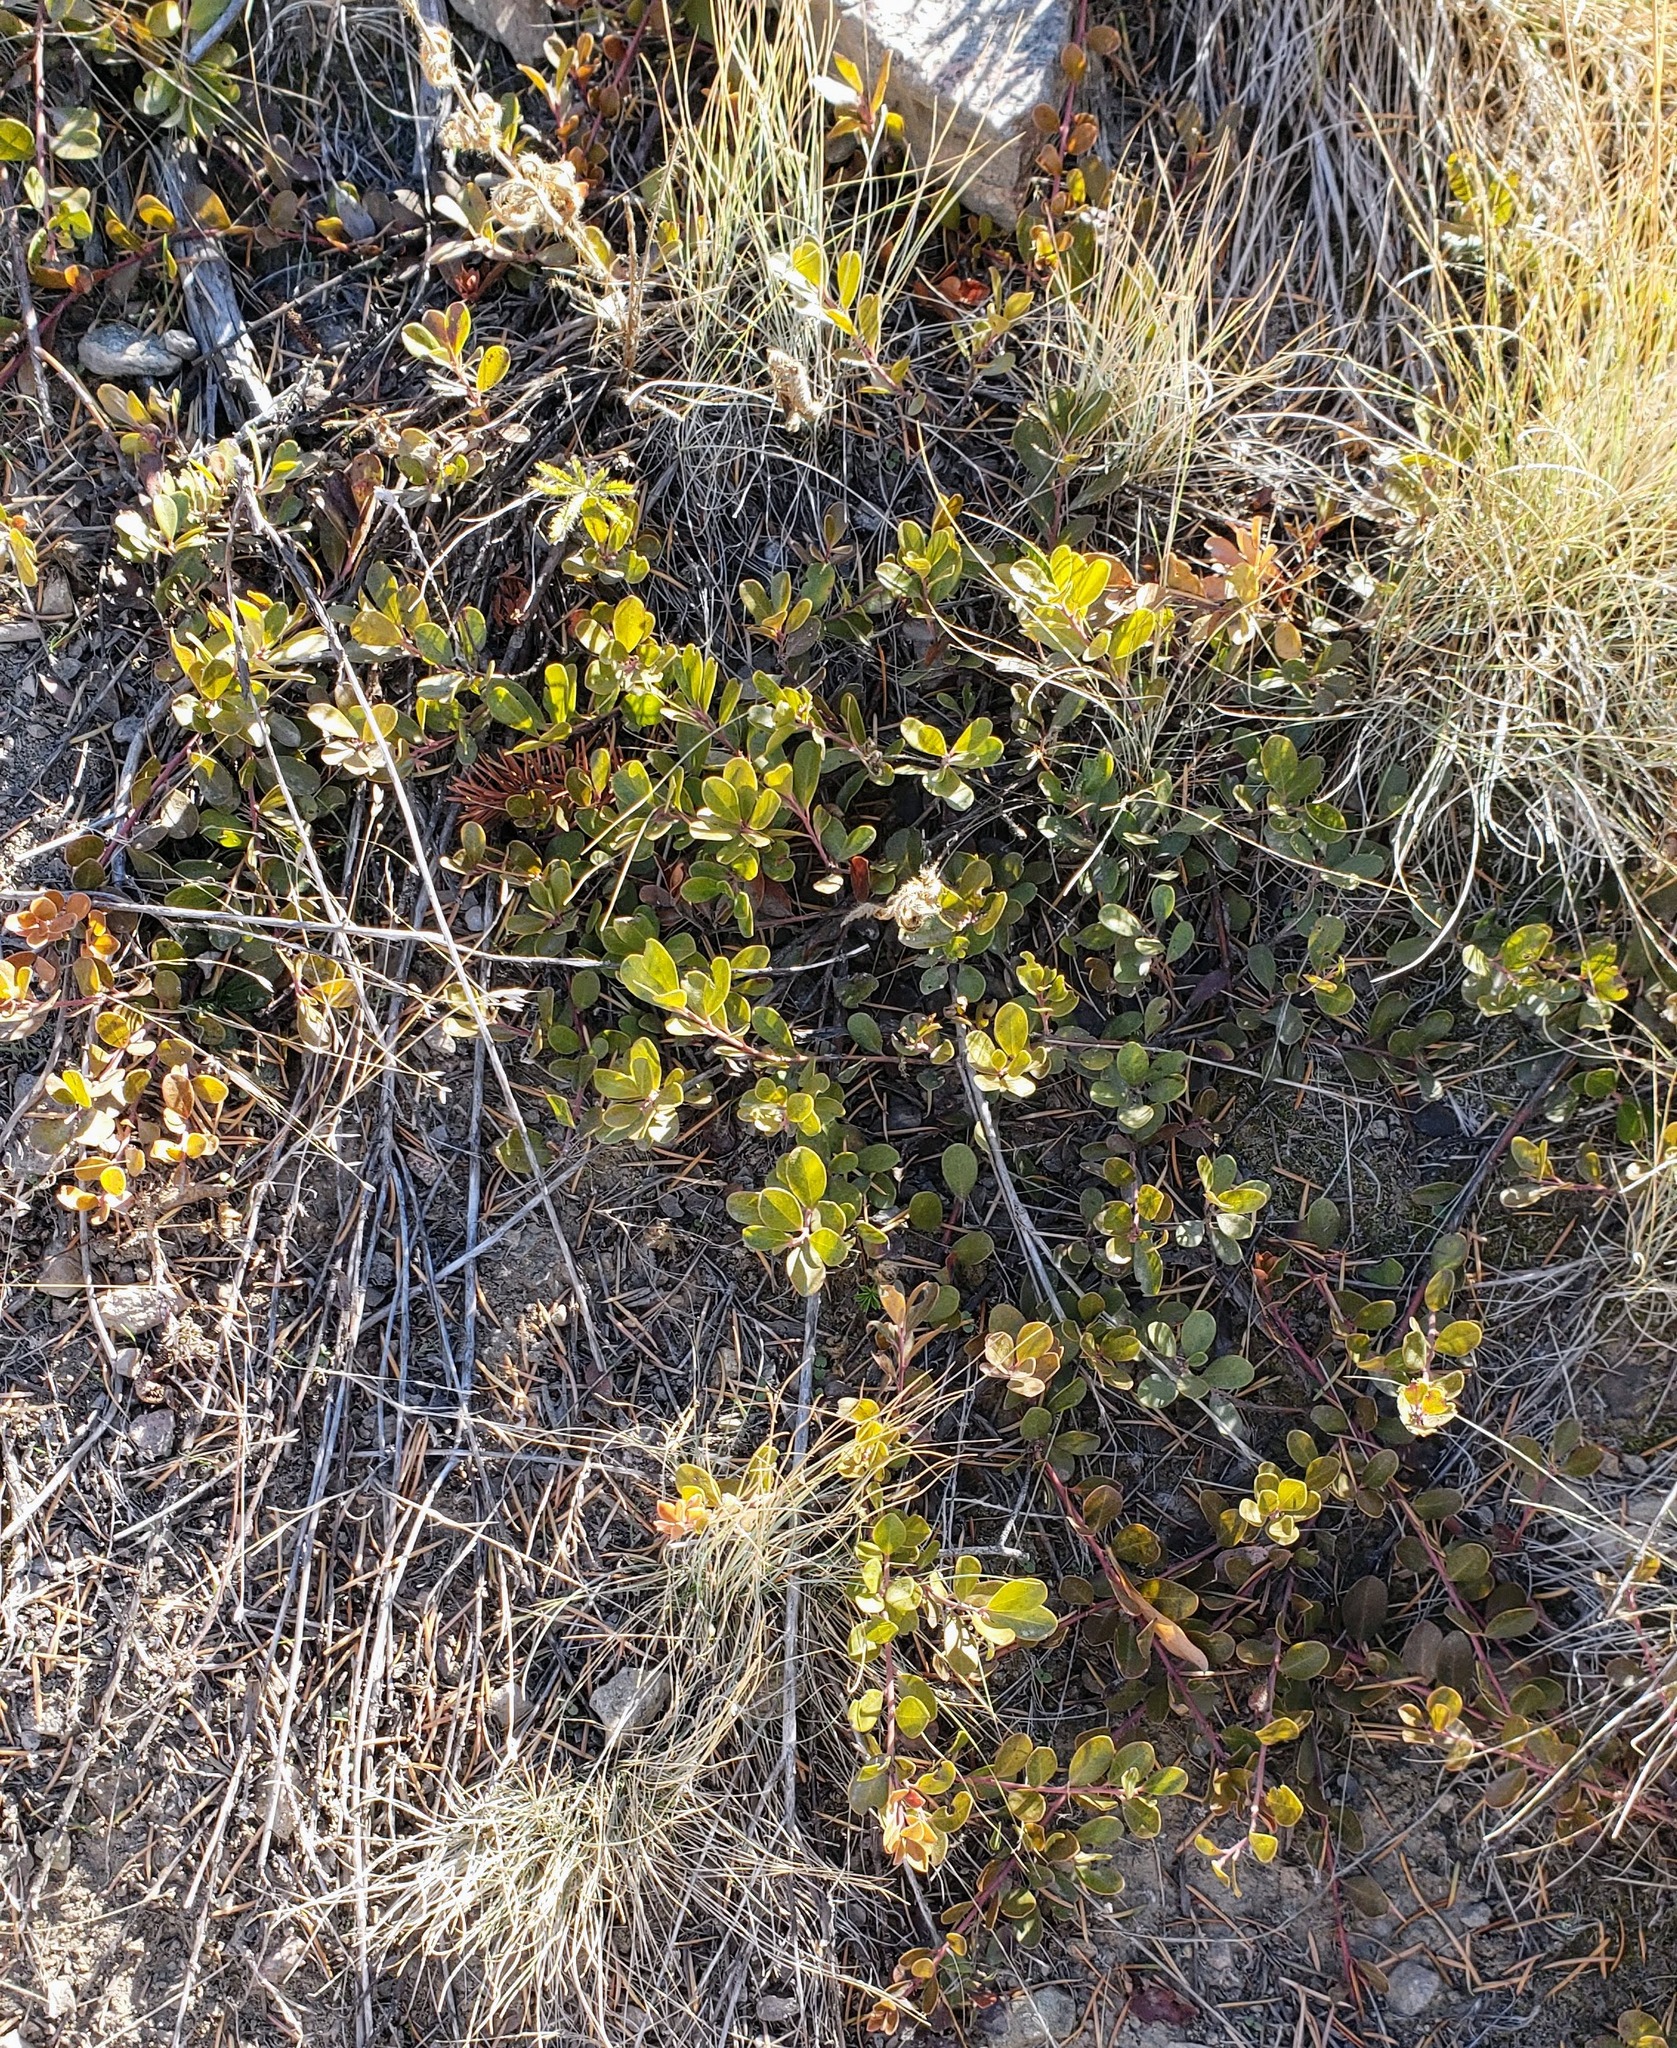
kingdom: Plantae
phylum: Tracheophyta
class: Magnoliopsida
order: Ericales
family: Ericaceae
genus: Arctostaphylos
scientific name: Arctostaphylos uva-ursi
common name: Bearberry
